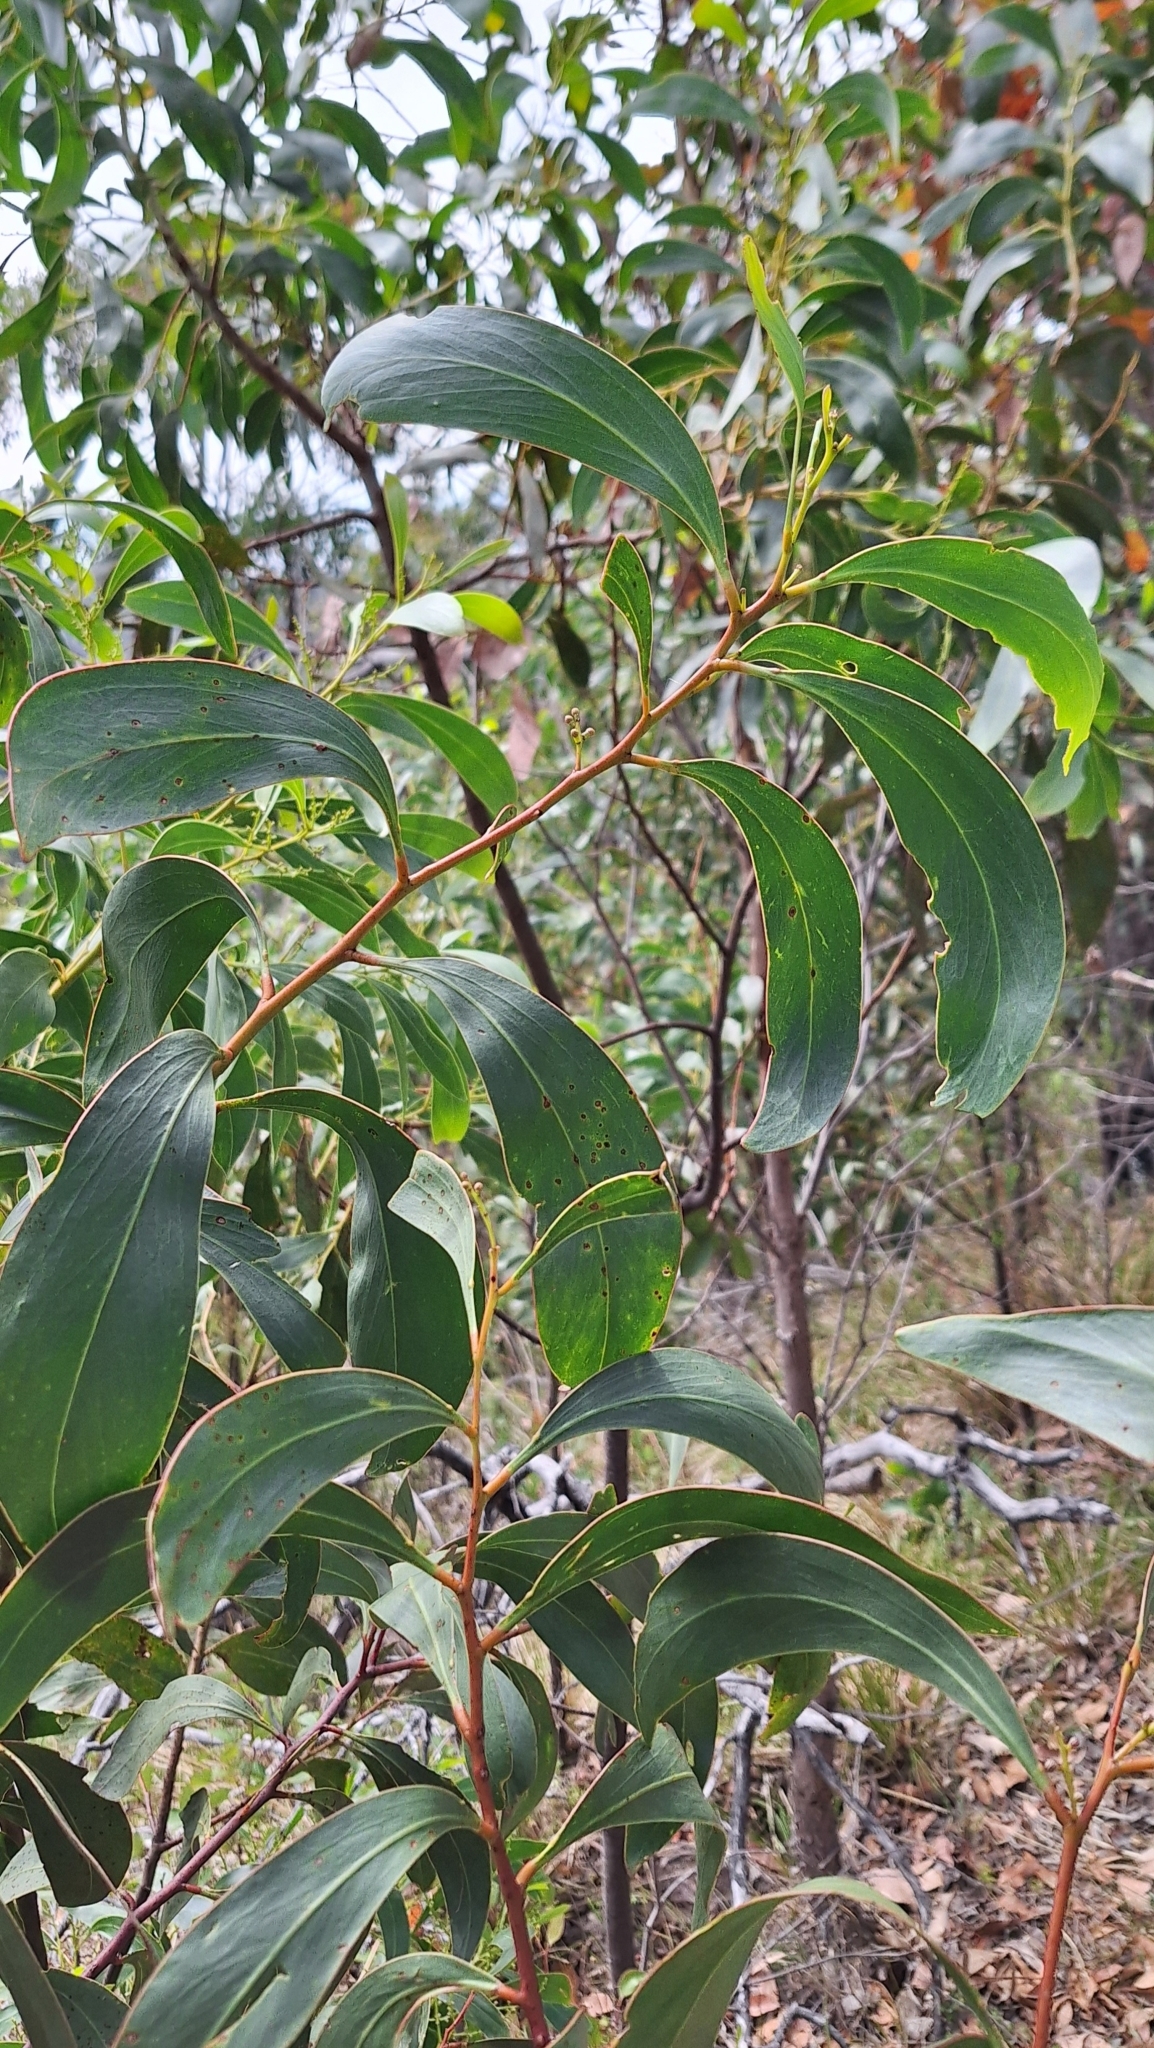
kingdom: Plantae
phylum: Tracheophyta
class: Magnoliopsida
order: Fabales
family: Fabaceae
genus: Acacia
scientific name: Acacia pycnantha
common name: Golden wattle
